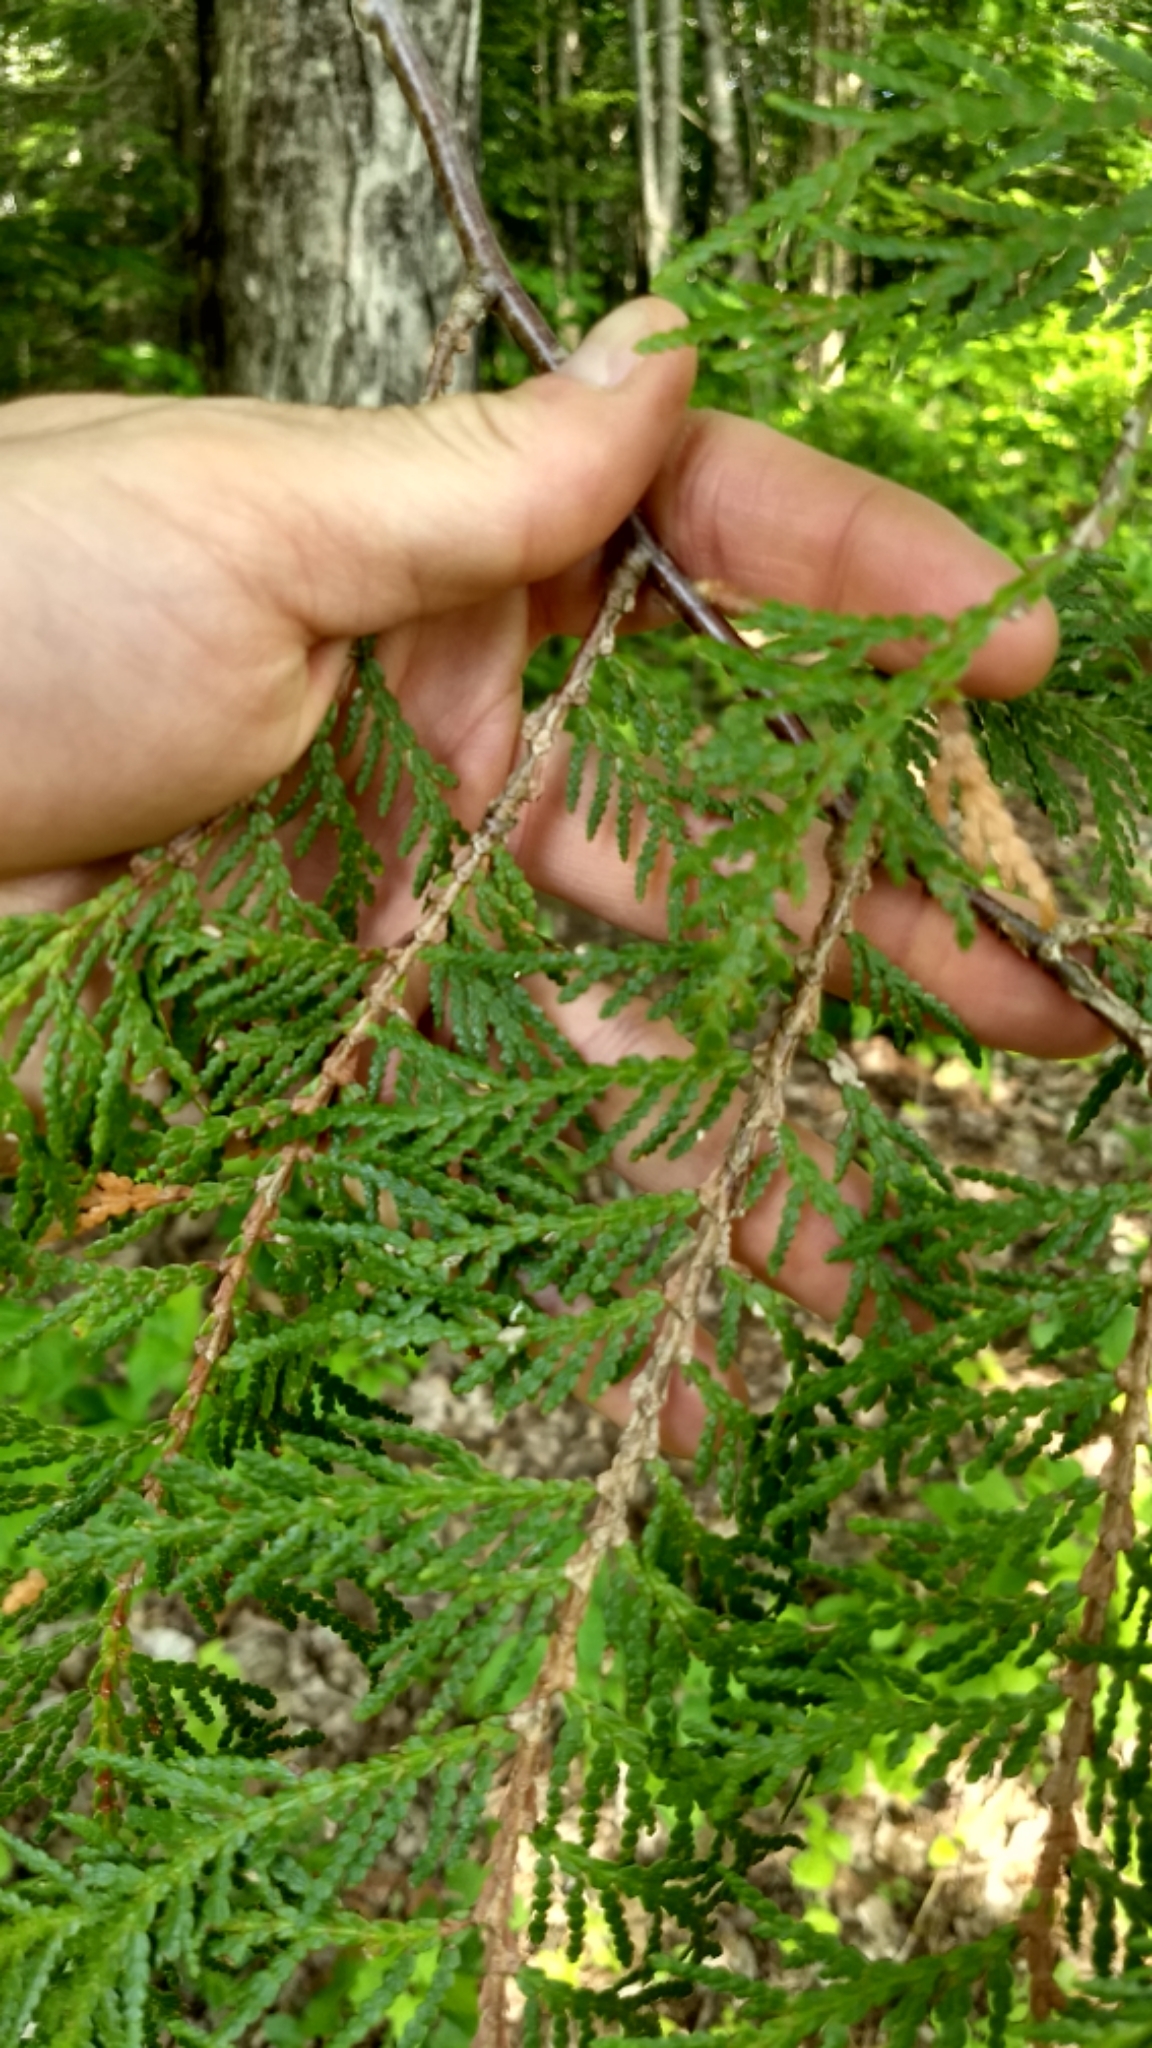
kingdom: Plantae
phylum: Tracheophyta
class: Pinopsida
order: Pinales
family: Cupressaceae
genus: Thuja
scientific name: Thuja occidentalis
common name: Northern white-cedar
